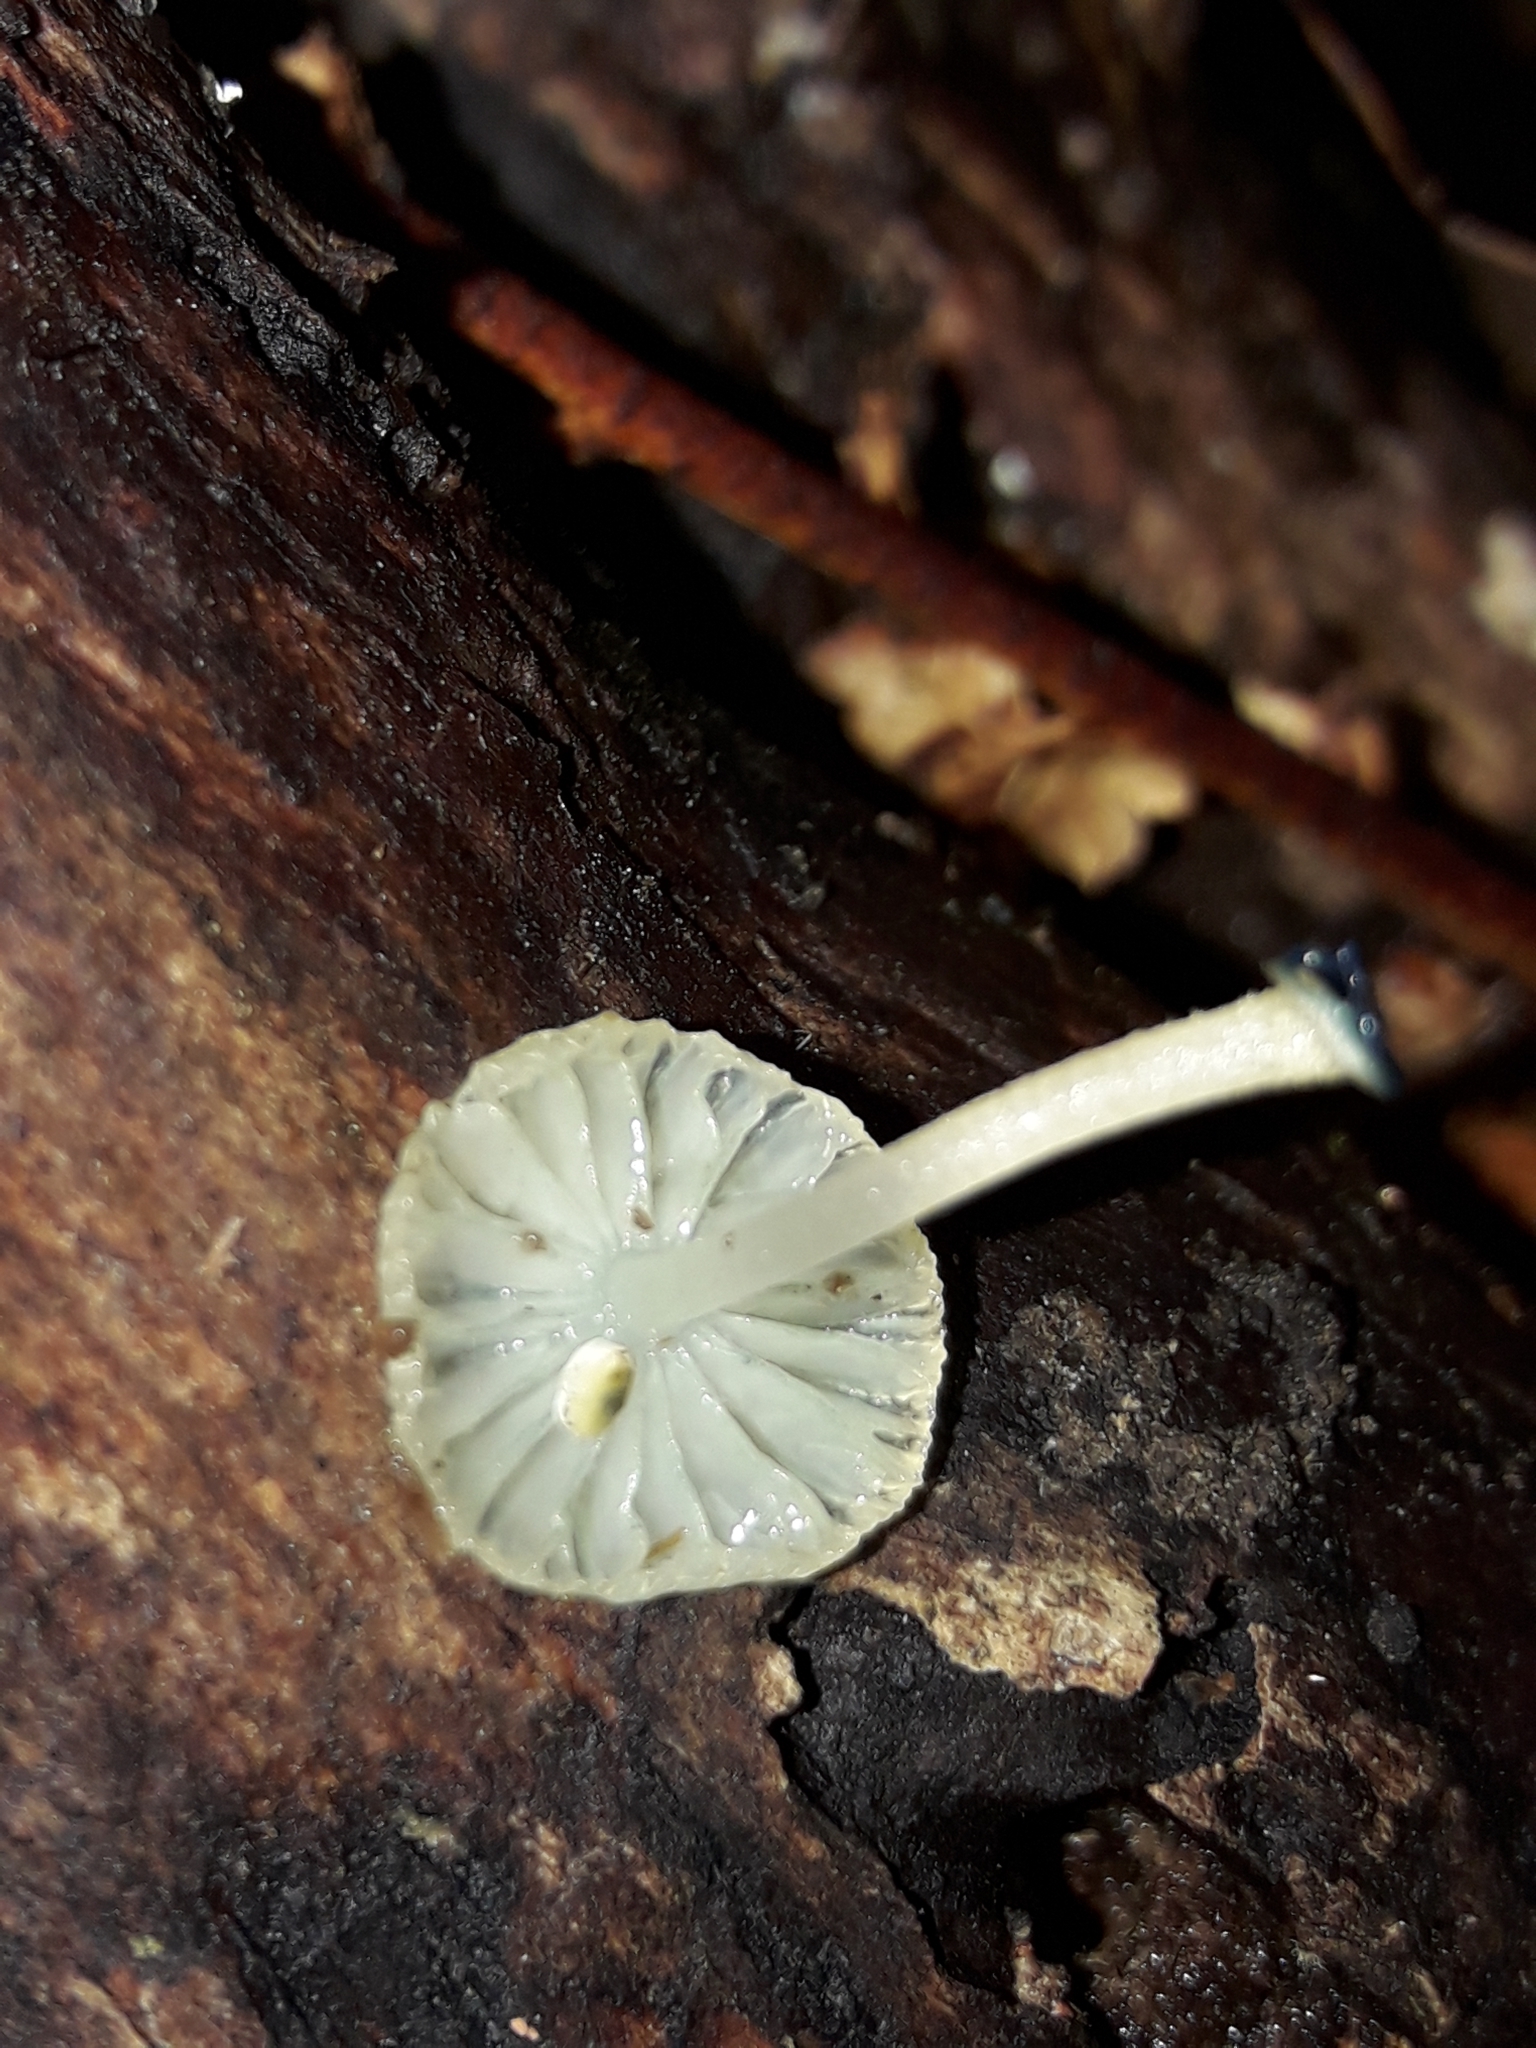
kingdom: Fungi
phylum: Basidiomycota
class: Agaricomycetes
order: Agaricales
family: Mycenaceae
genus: Mycena
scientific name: Mycena interrupta
